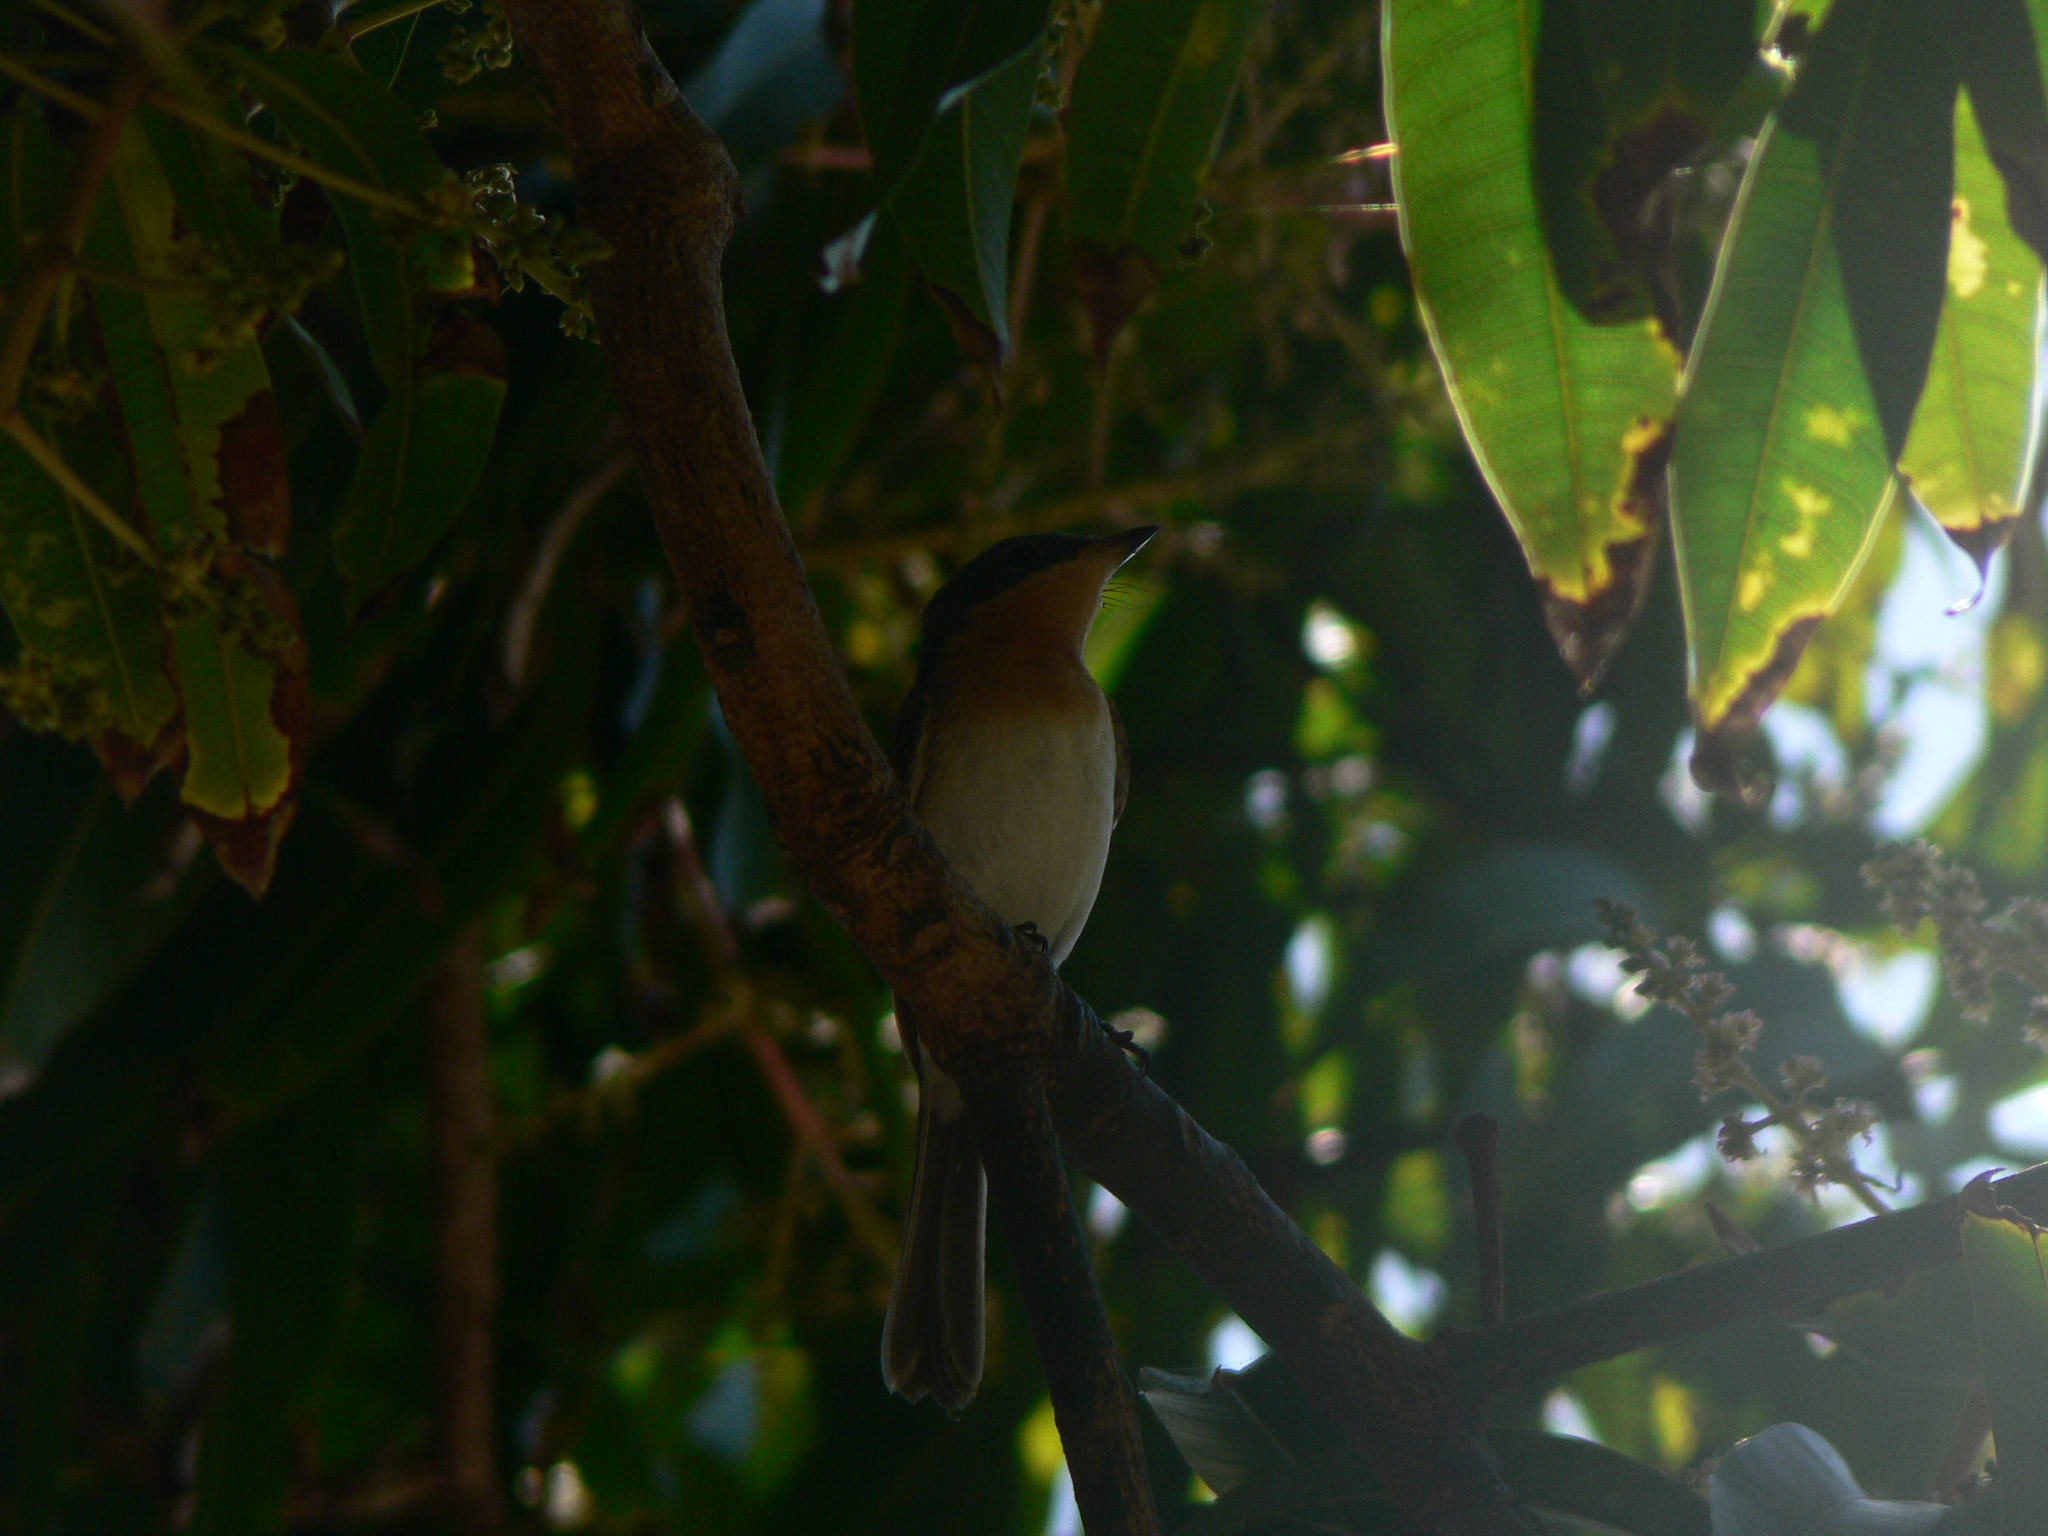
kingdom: Animalia
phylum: Chordata
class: Aves
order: Passeriformes
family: Monarchidae
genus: Myiagra
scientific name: Myiagra rubecula
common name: Leaden flycatcher
